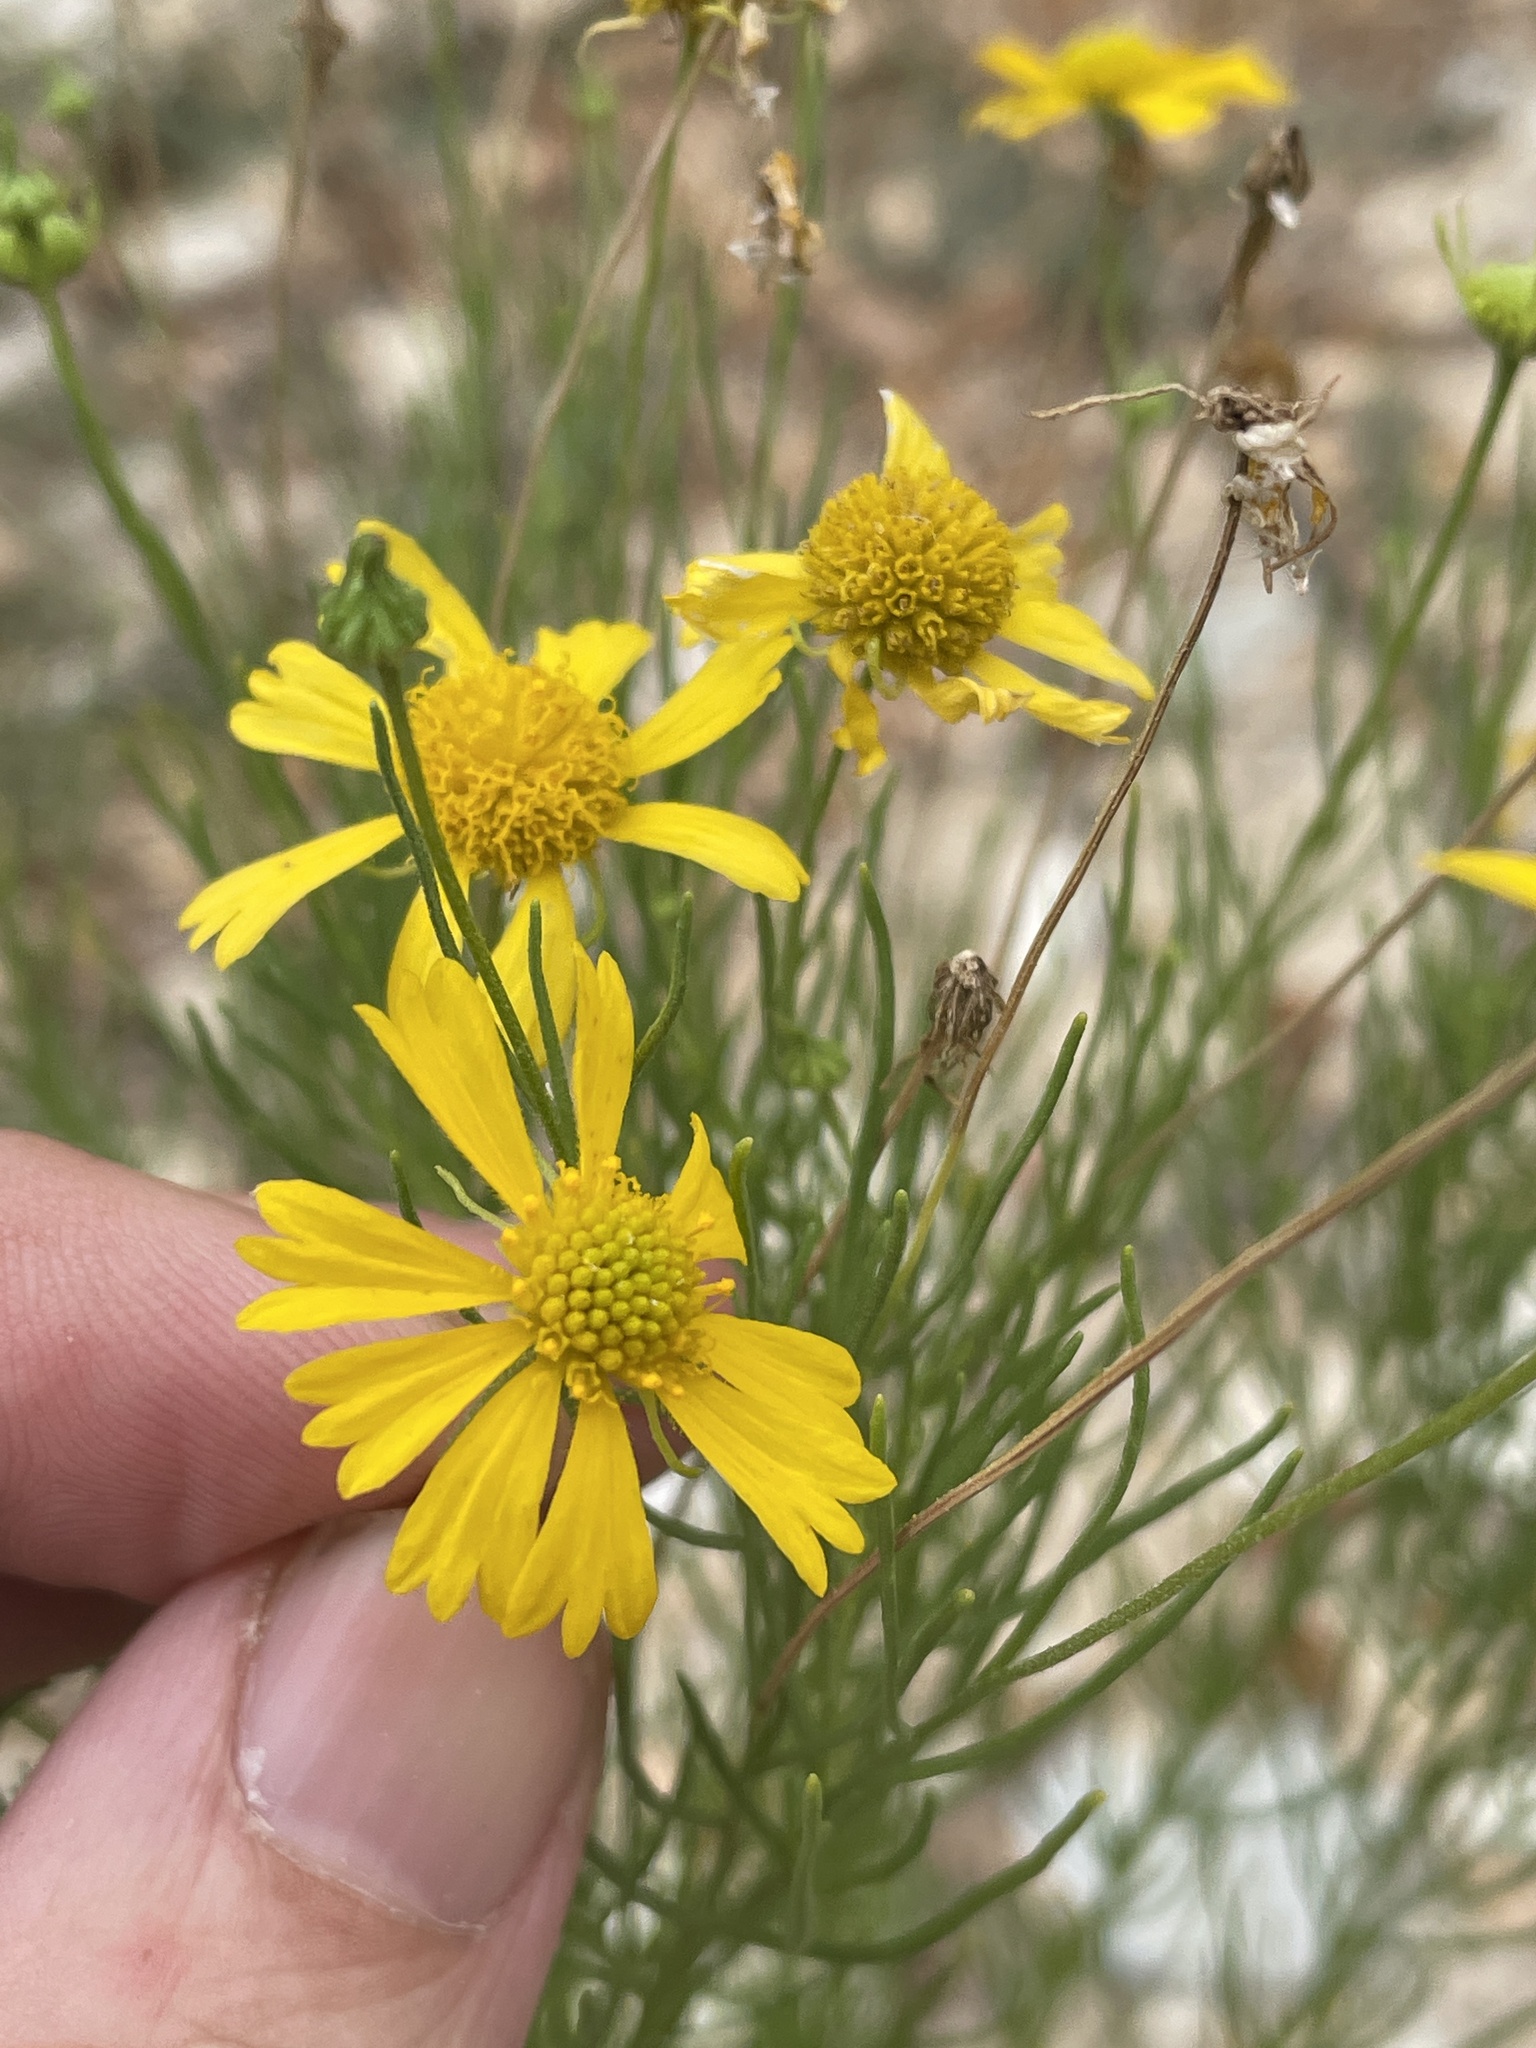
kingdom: Plantae
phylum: Tracheophyta
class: Magnoliopsida
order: Asterales
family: Asteraceae
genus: Helenium
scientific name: Helenium amarum
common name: Bitter sneezeweed
